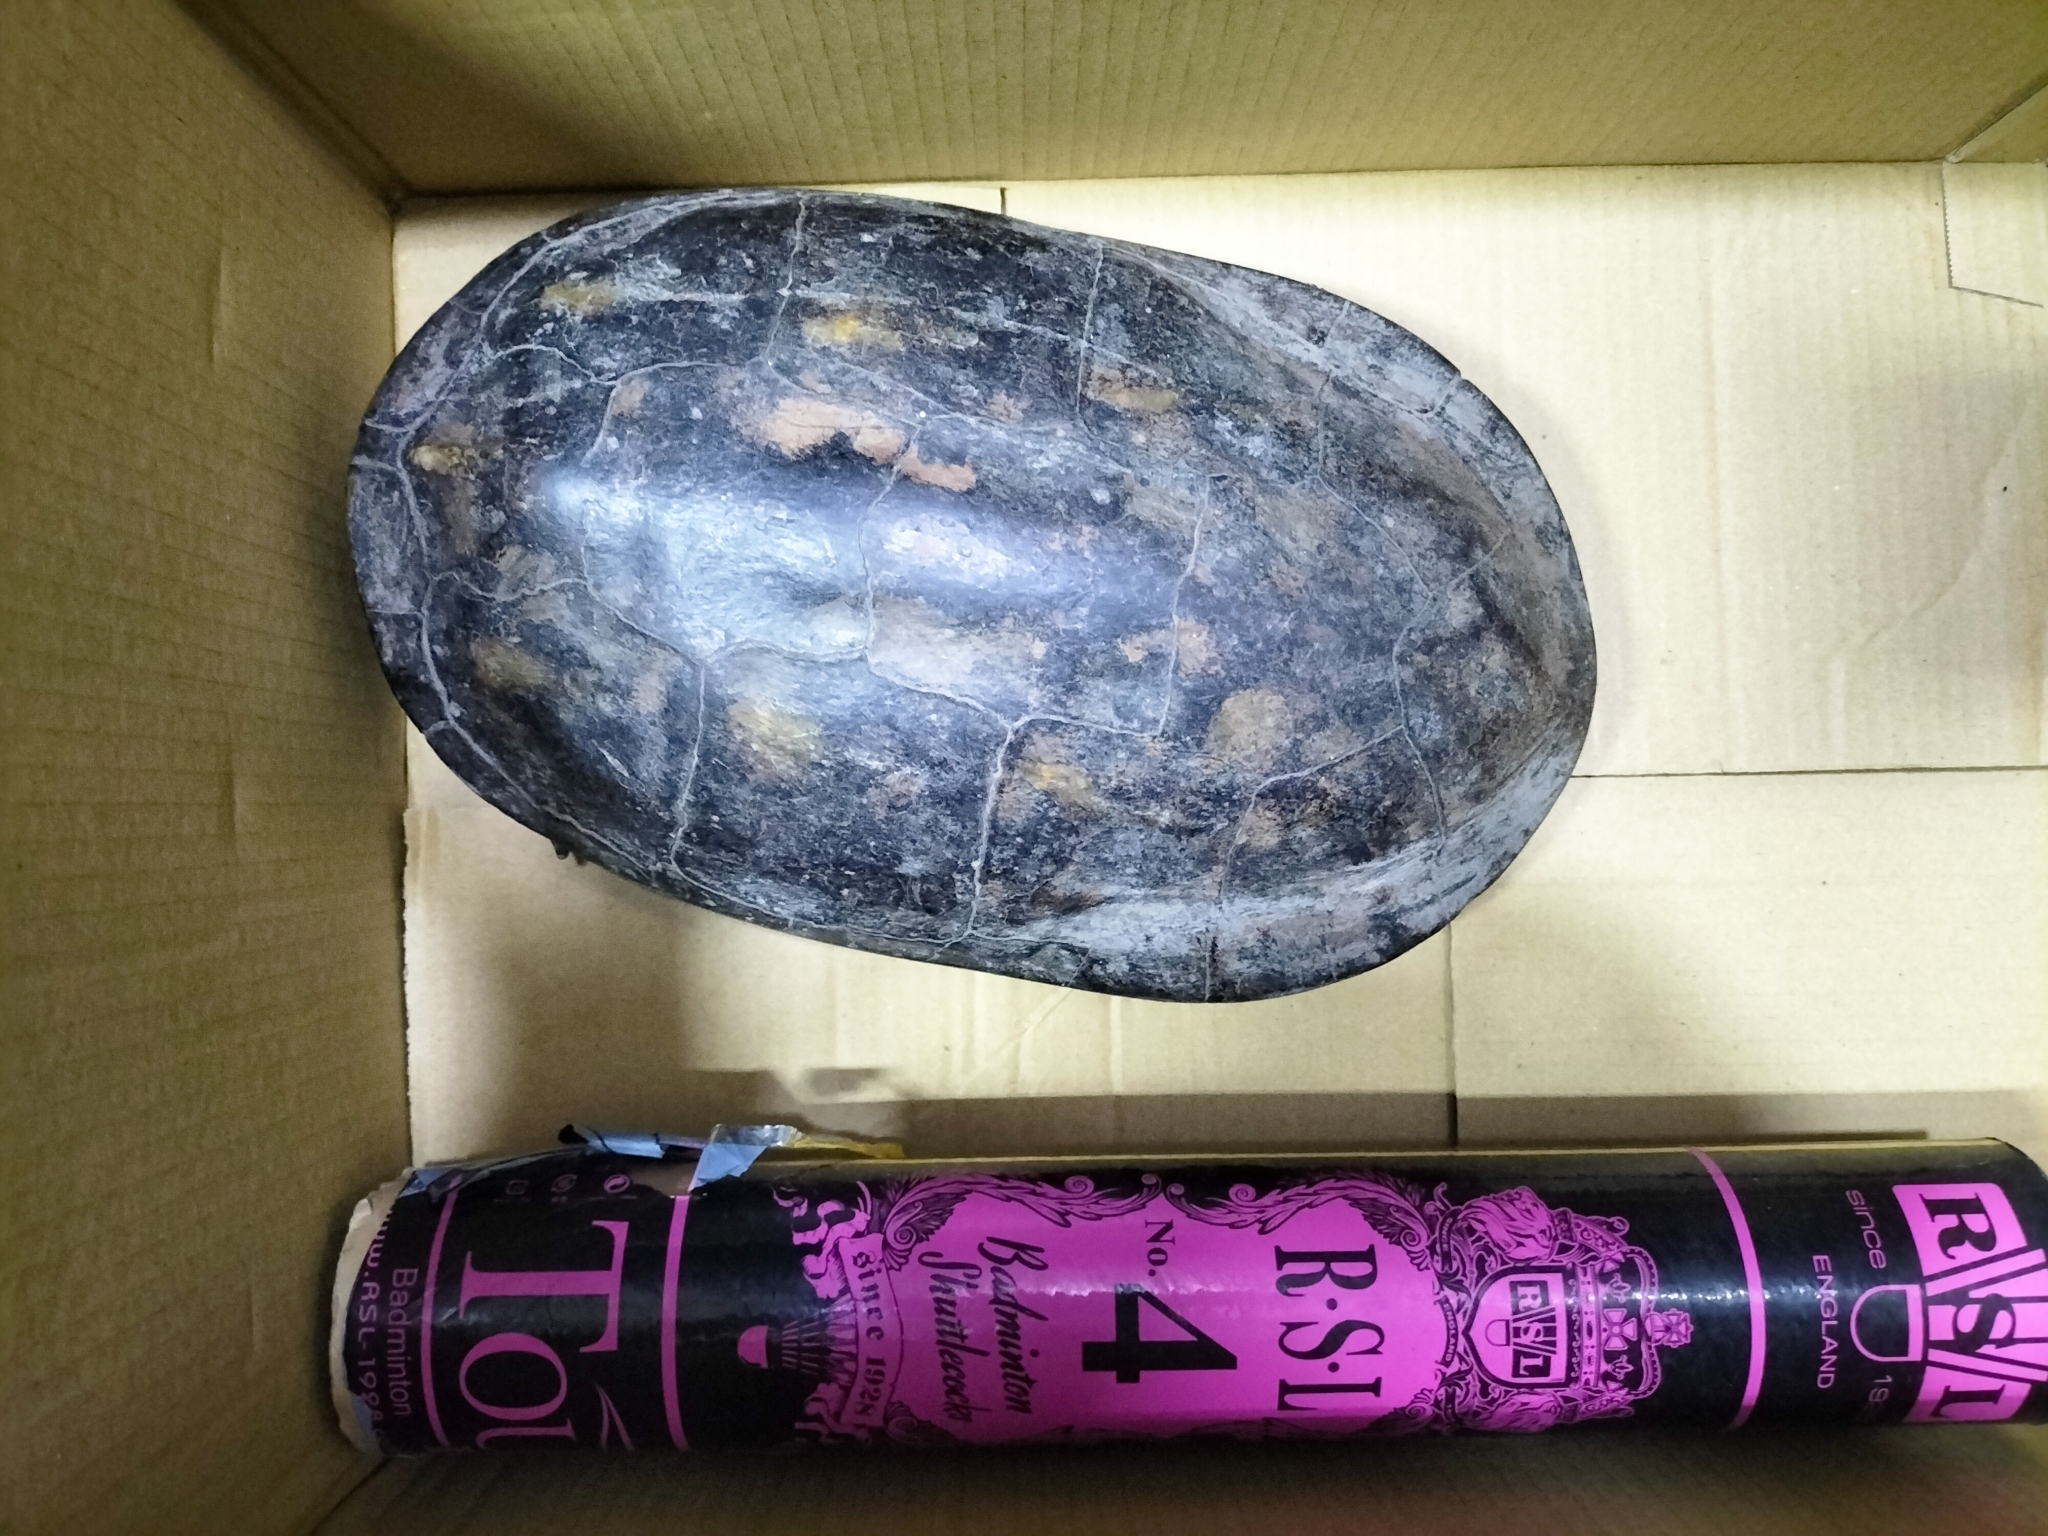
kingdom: Animalia
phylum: Chordata
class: Testudines
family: Geoemydidae
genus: Mauremys
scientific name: Mauremys sinensis
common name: Chinese stripe-necked turtle
